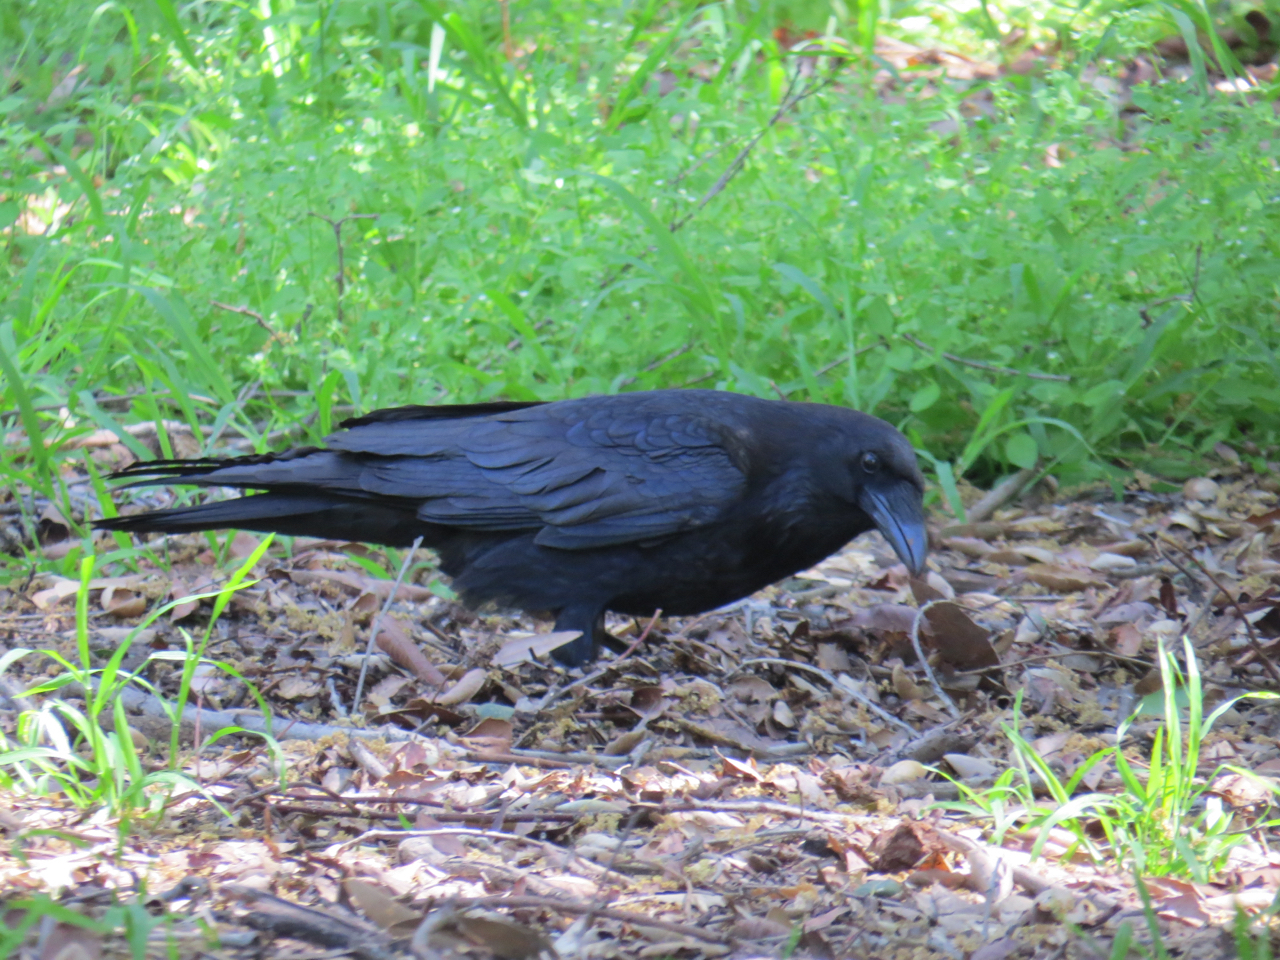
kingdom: Animalia
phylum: Chordata
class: Aves
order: Passeriformes
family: Corvidae
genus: Corvus
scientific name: Corvus corax
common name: Common raven
